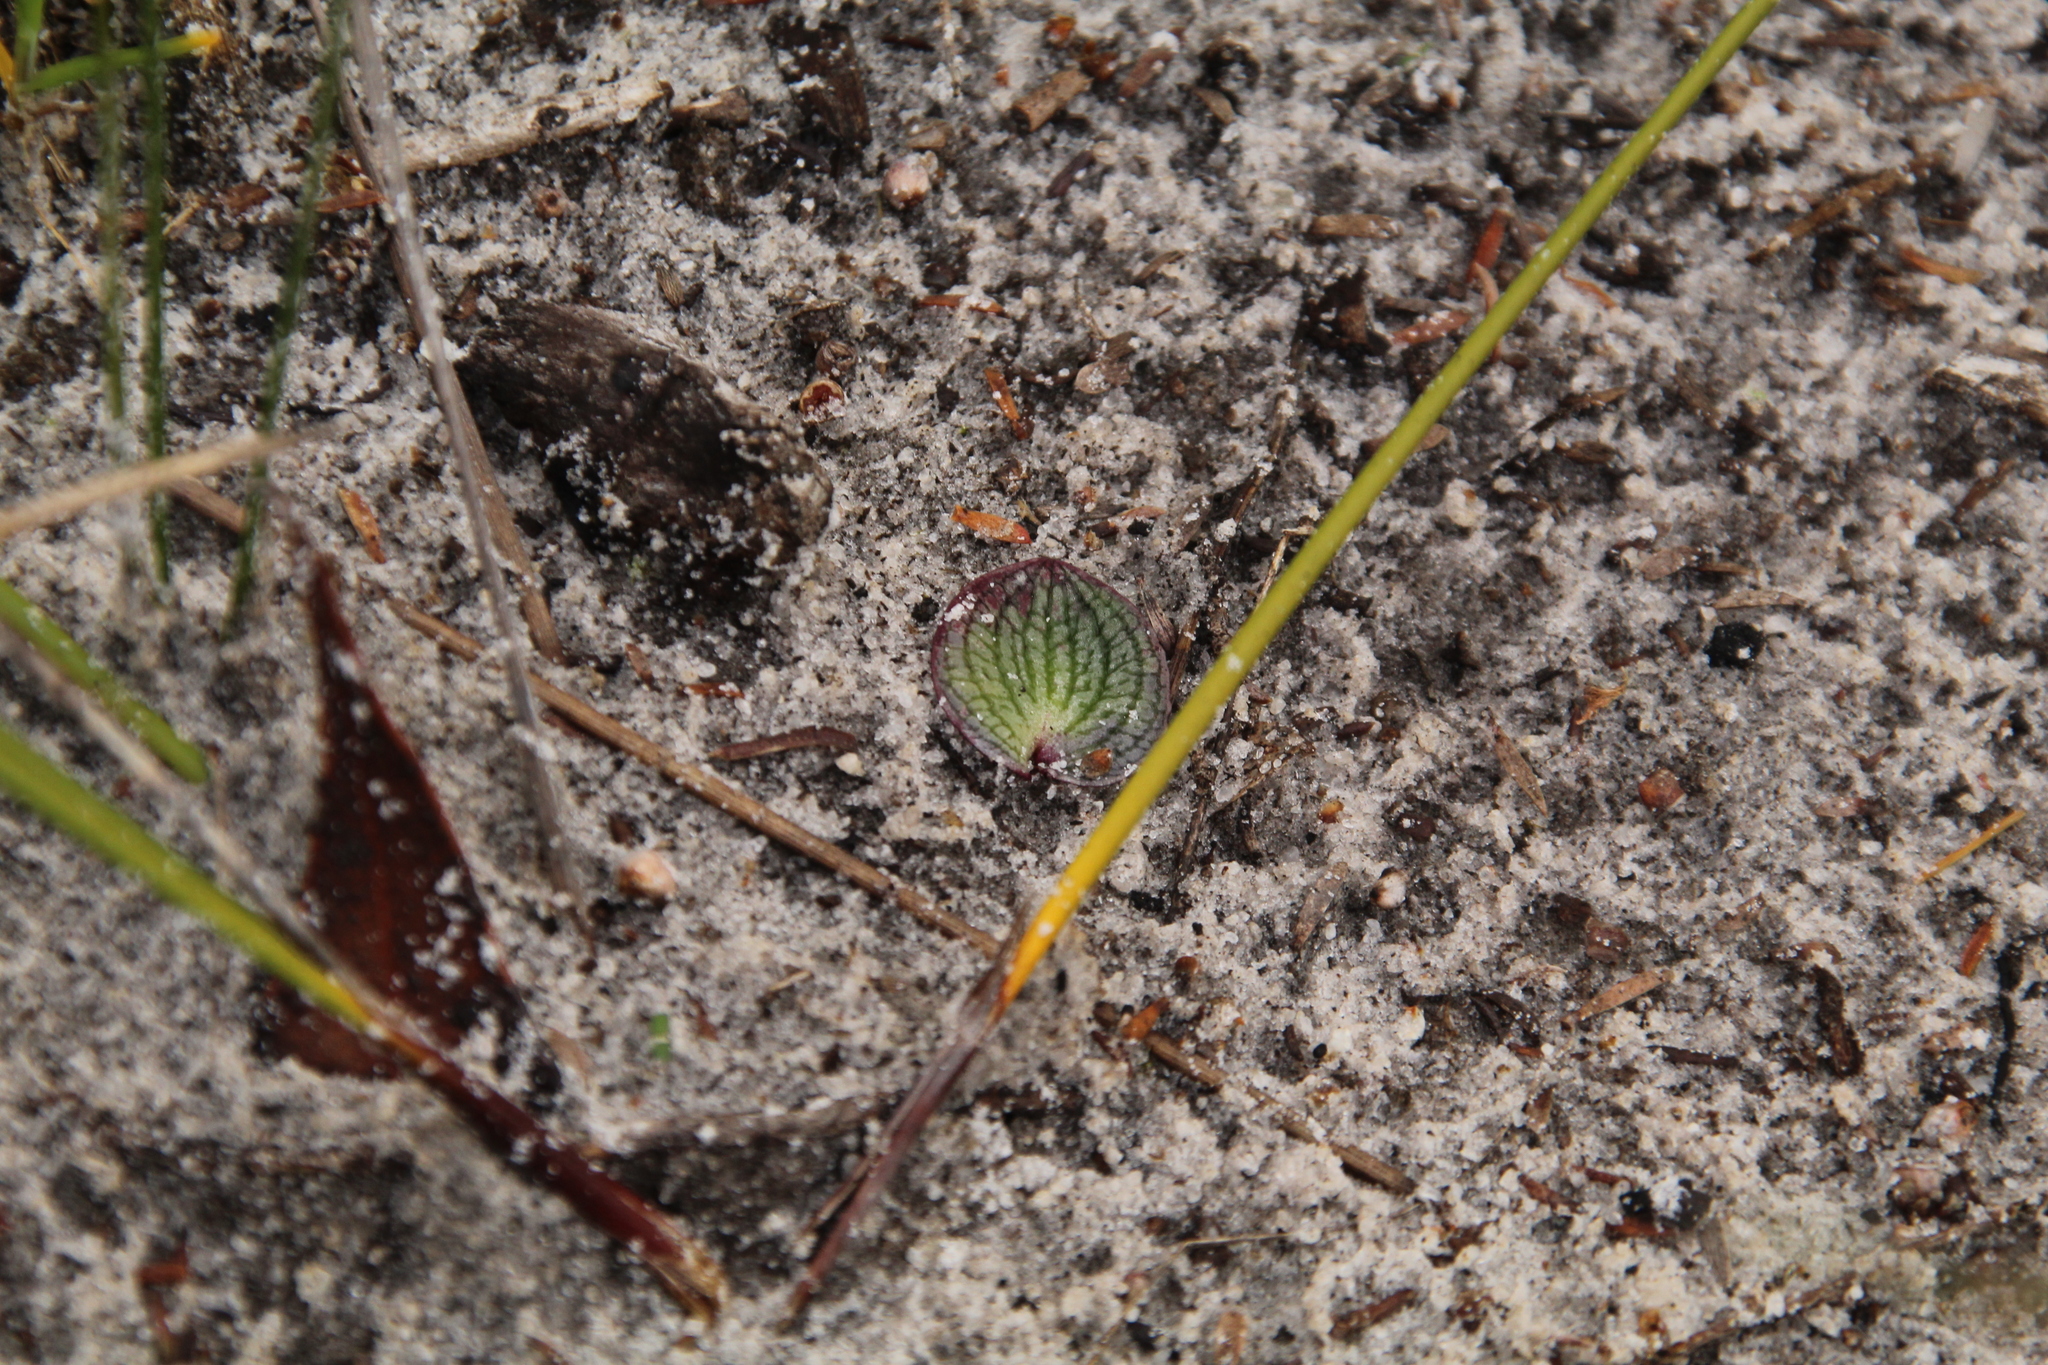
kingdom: Plantae
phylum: Tracheophyta
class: Liliopsida
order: Asparagales
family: Orchidaceae
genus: Drakaea
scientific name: Drakaea glyptodon
